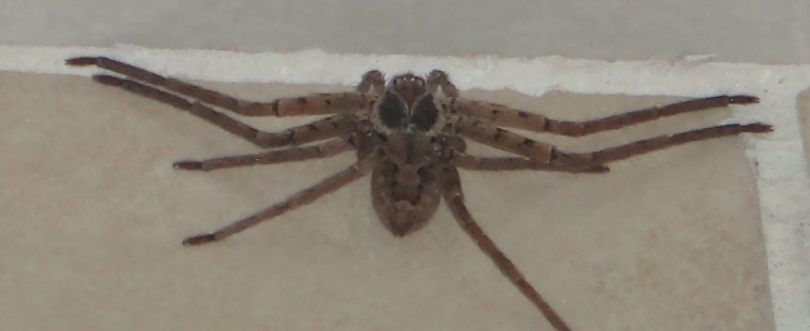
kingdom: Animalia
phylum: Arthropoda
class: Arachnida
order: Araneae
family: Sparassidae
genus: Heteropoda
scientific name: Heteropoda venatoria
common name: Huntsman spider
